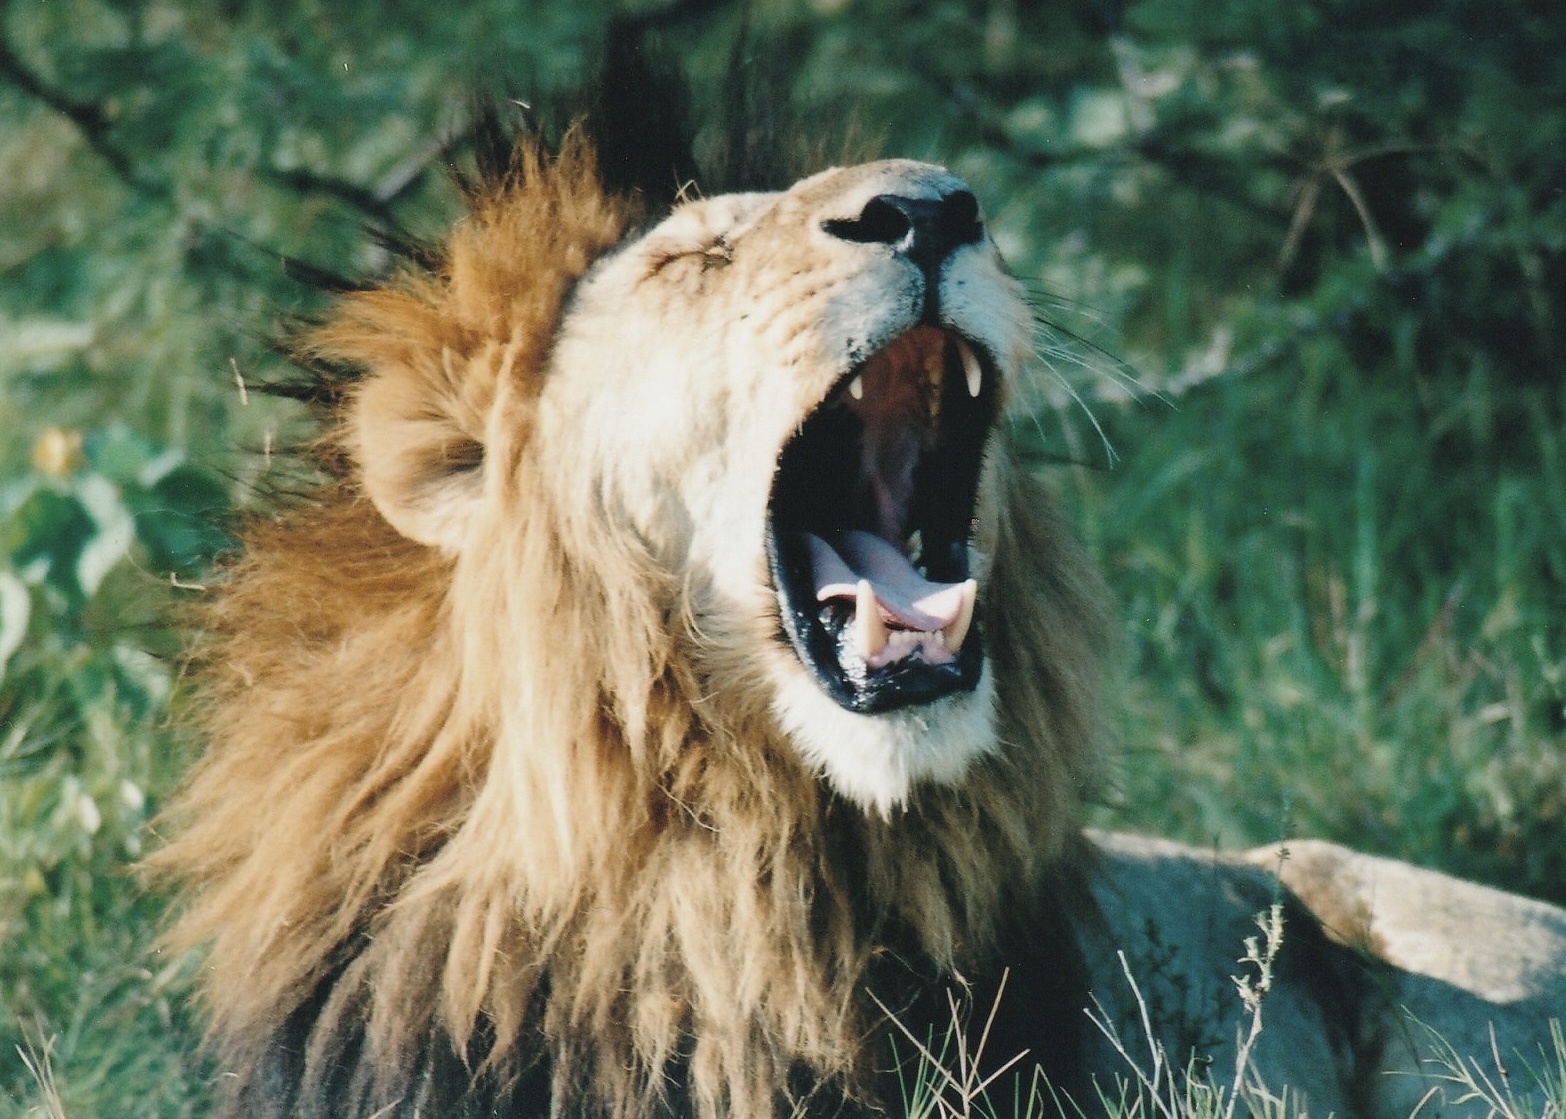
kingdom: Animalia
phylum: Chordata
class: Mammalia
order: Carnivora
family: Felidae
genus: Panthera
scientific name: Panthera leo
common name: Lion
